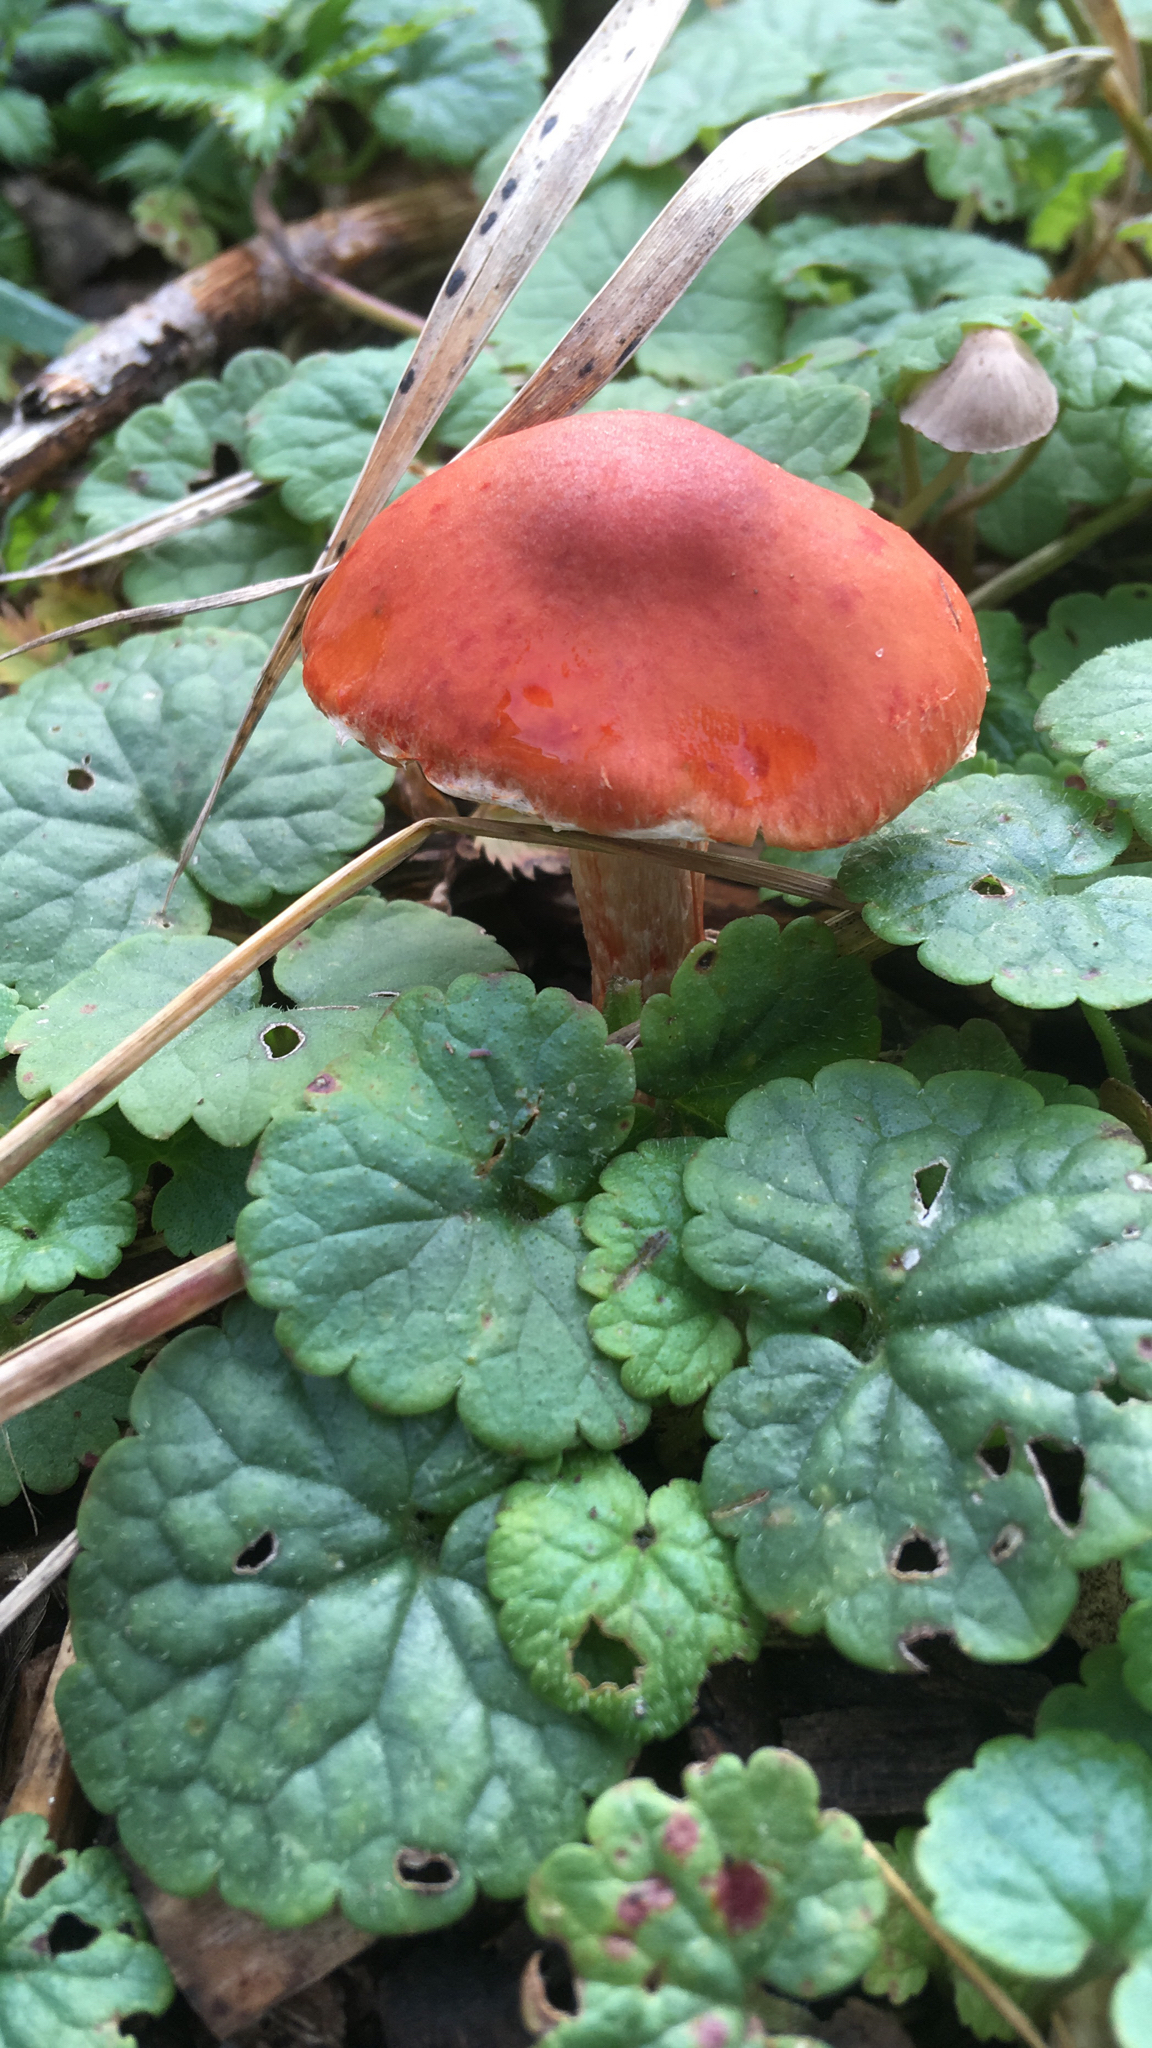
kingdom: Fungi
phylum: Basidiomycota
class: Agaricomycetes
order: Agaricales
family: Strophariaceae
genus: Leratiomyces
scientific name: Leratiomyces ceres
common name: Redlead roundhead
